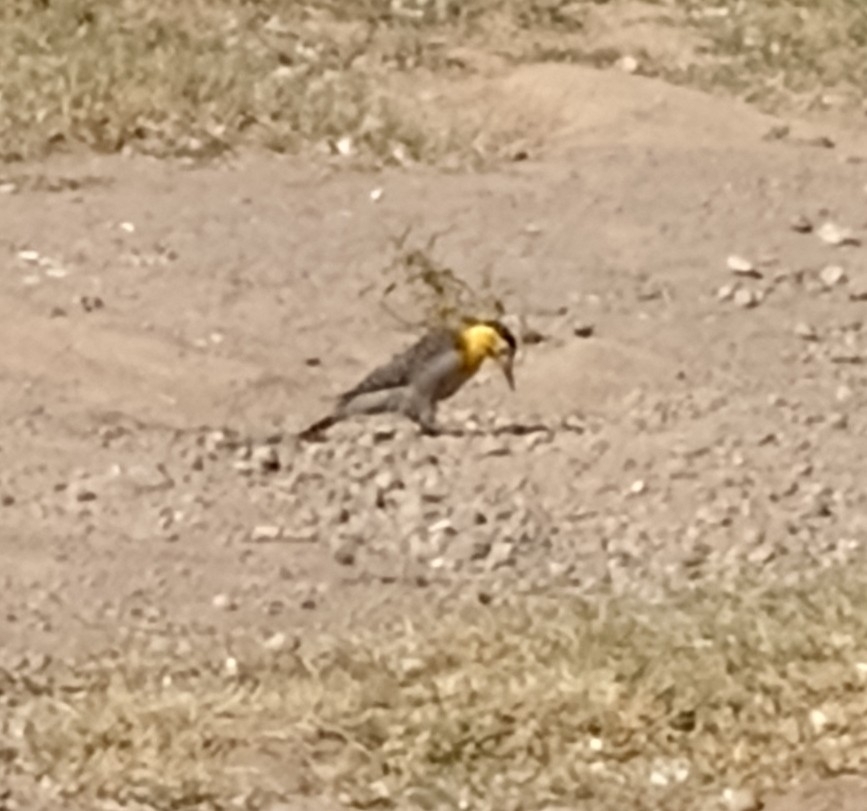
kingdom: Animalia
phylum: Chordata
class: Aves
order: Piciformes
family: Picidae
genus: Colaptes
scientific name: Colaptes campestris
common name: Campo flicker
